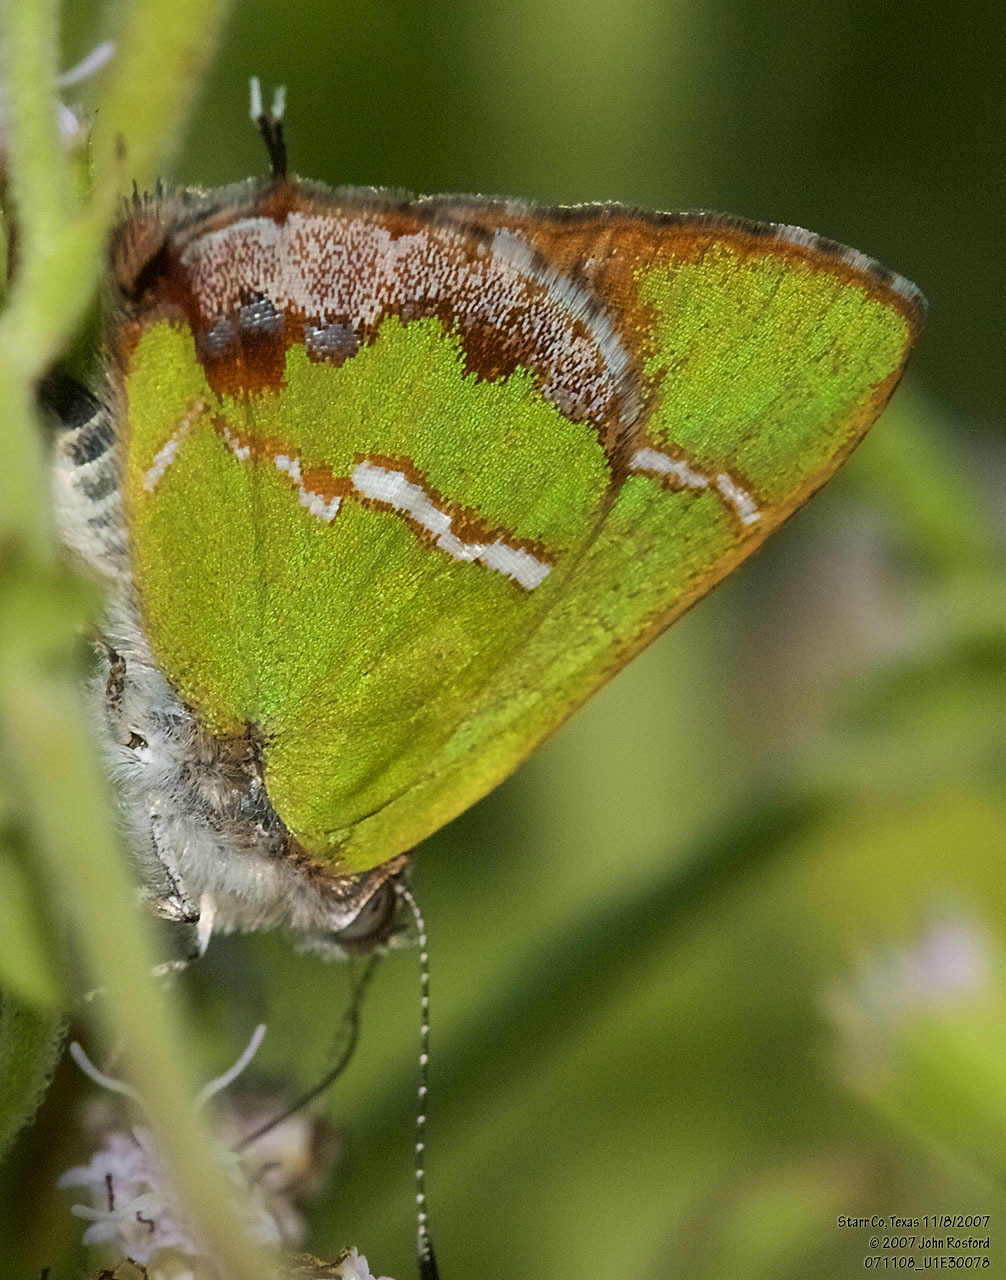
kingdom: Animalia
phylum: Arthropoda
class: Insecta
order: Lepidoptera
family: Lycaenidae
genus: Chlorostrymon
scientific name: Chlorostrymon simaethis
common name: Silver-banded hairstreak
